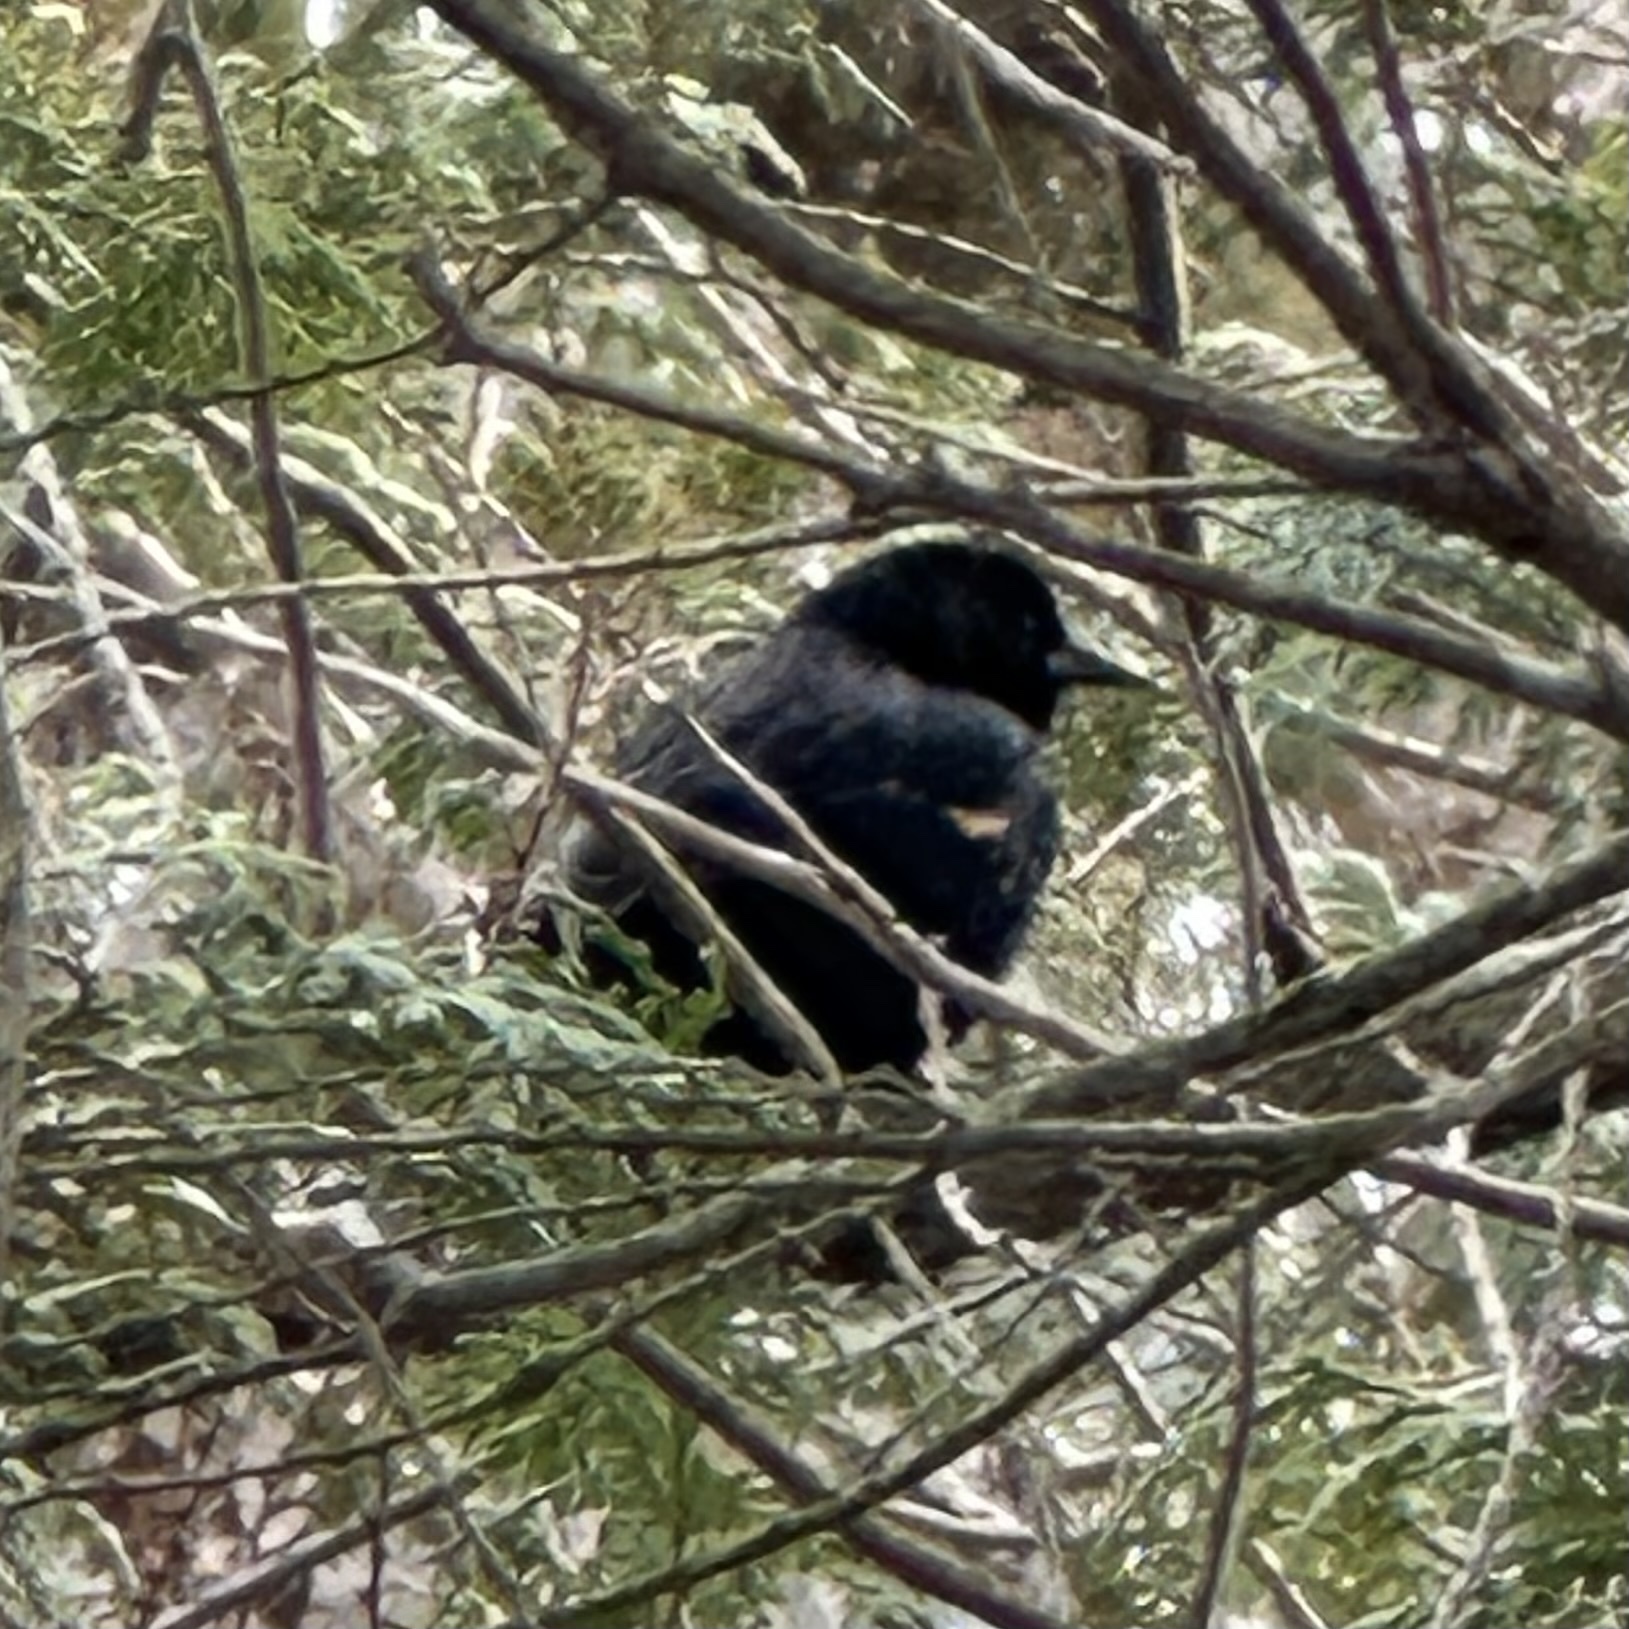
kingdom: Animalia
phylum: Chordata
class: Aves
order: Passeriformes
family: Icteridae
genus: Agelaius
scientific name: Agelaius phoeniceus
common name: Red-winged blackbird
